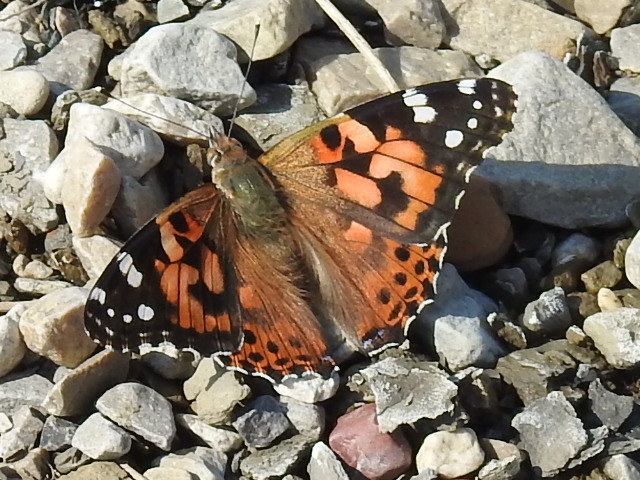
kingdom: Animalia
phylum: Arthropoda
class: Insecta
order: Lepidoptera
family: Nymphalidae
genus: Vanessa
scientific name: Vanessa cardui
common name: Painted lady
